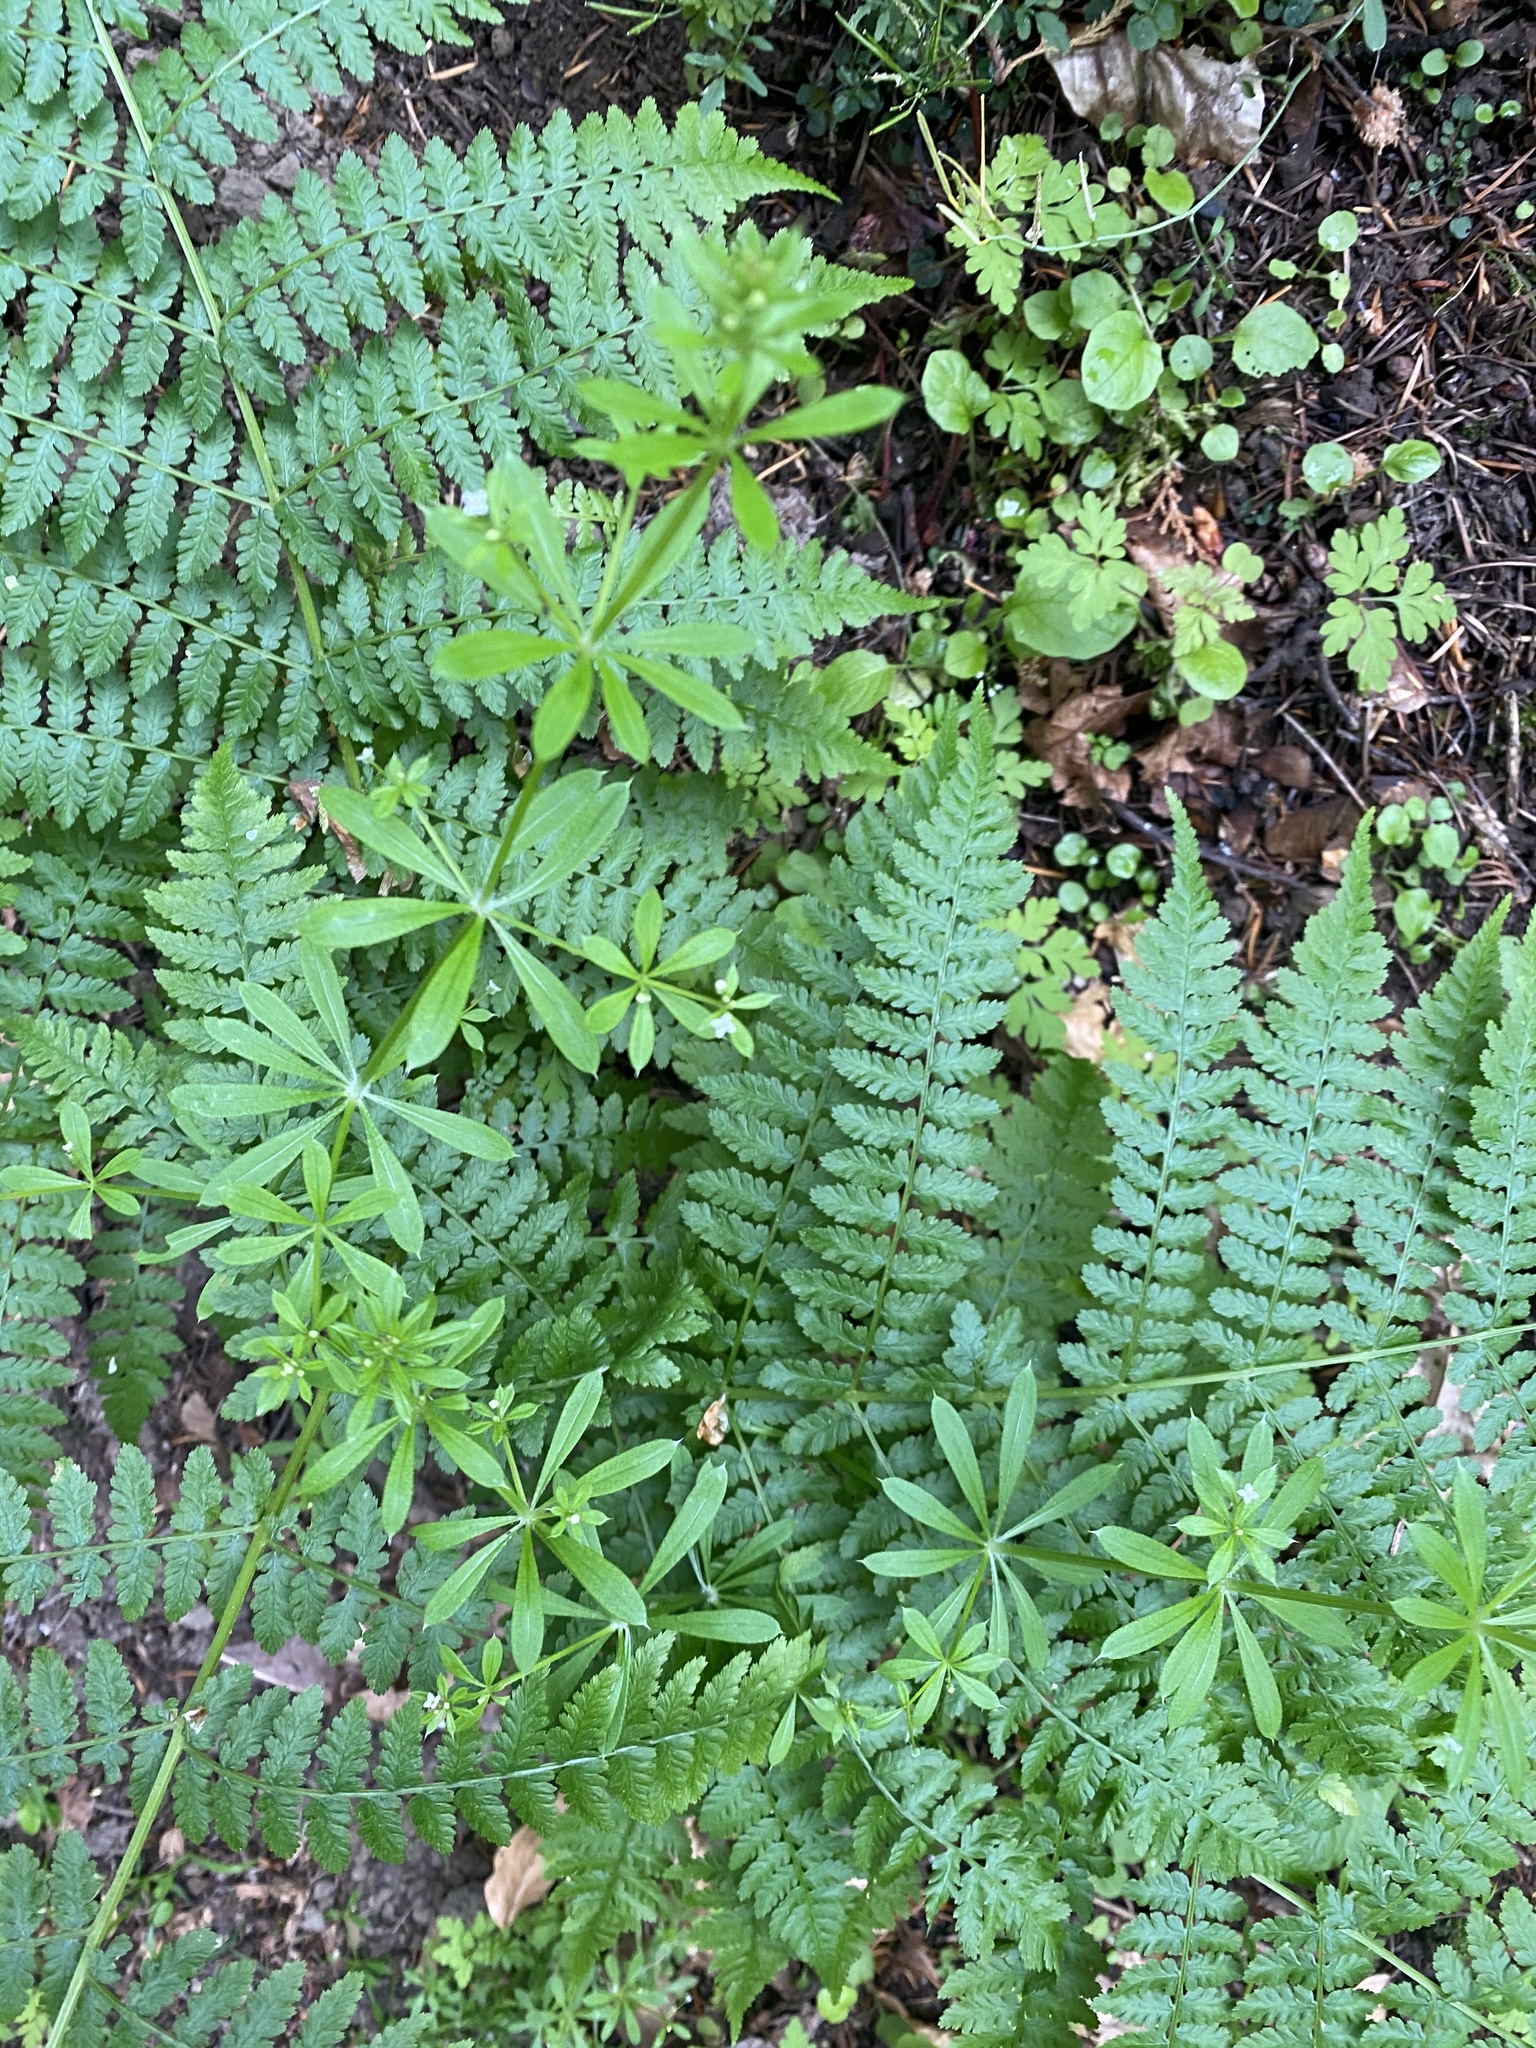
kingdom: Plantae
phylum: Tracheophyta
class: Magnoliopsida
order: Gentianales
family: Rubiaceae
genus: Galium
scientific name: Galium aparine
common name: Cleavers
